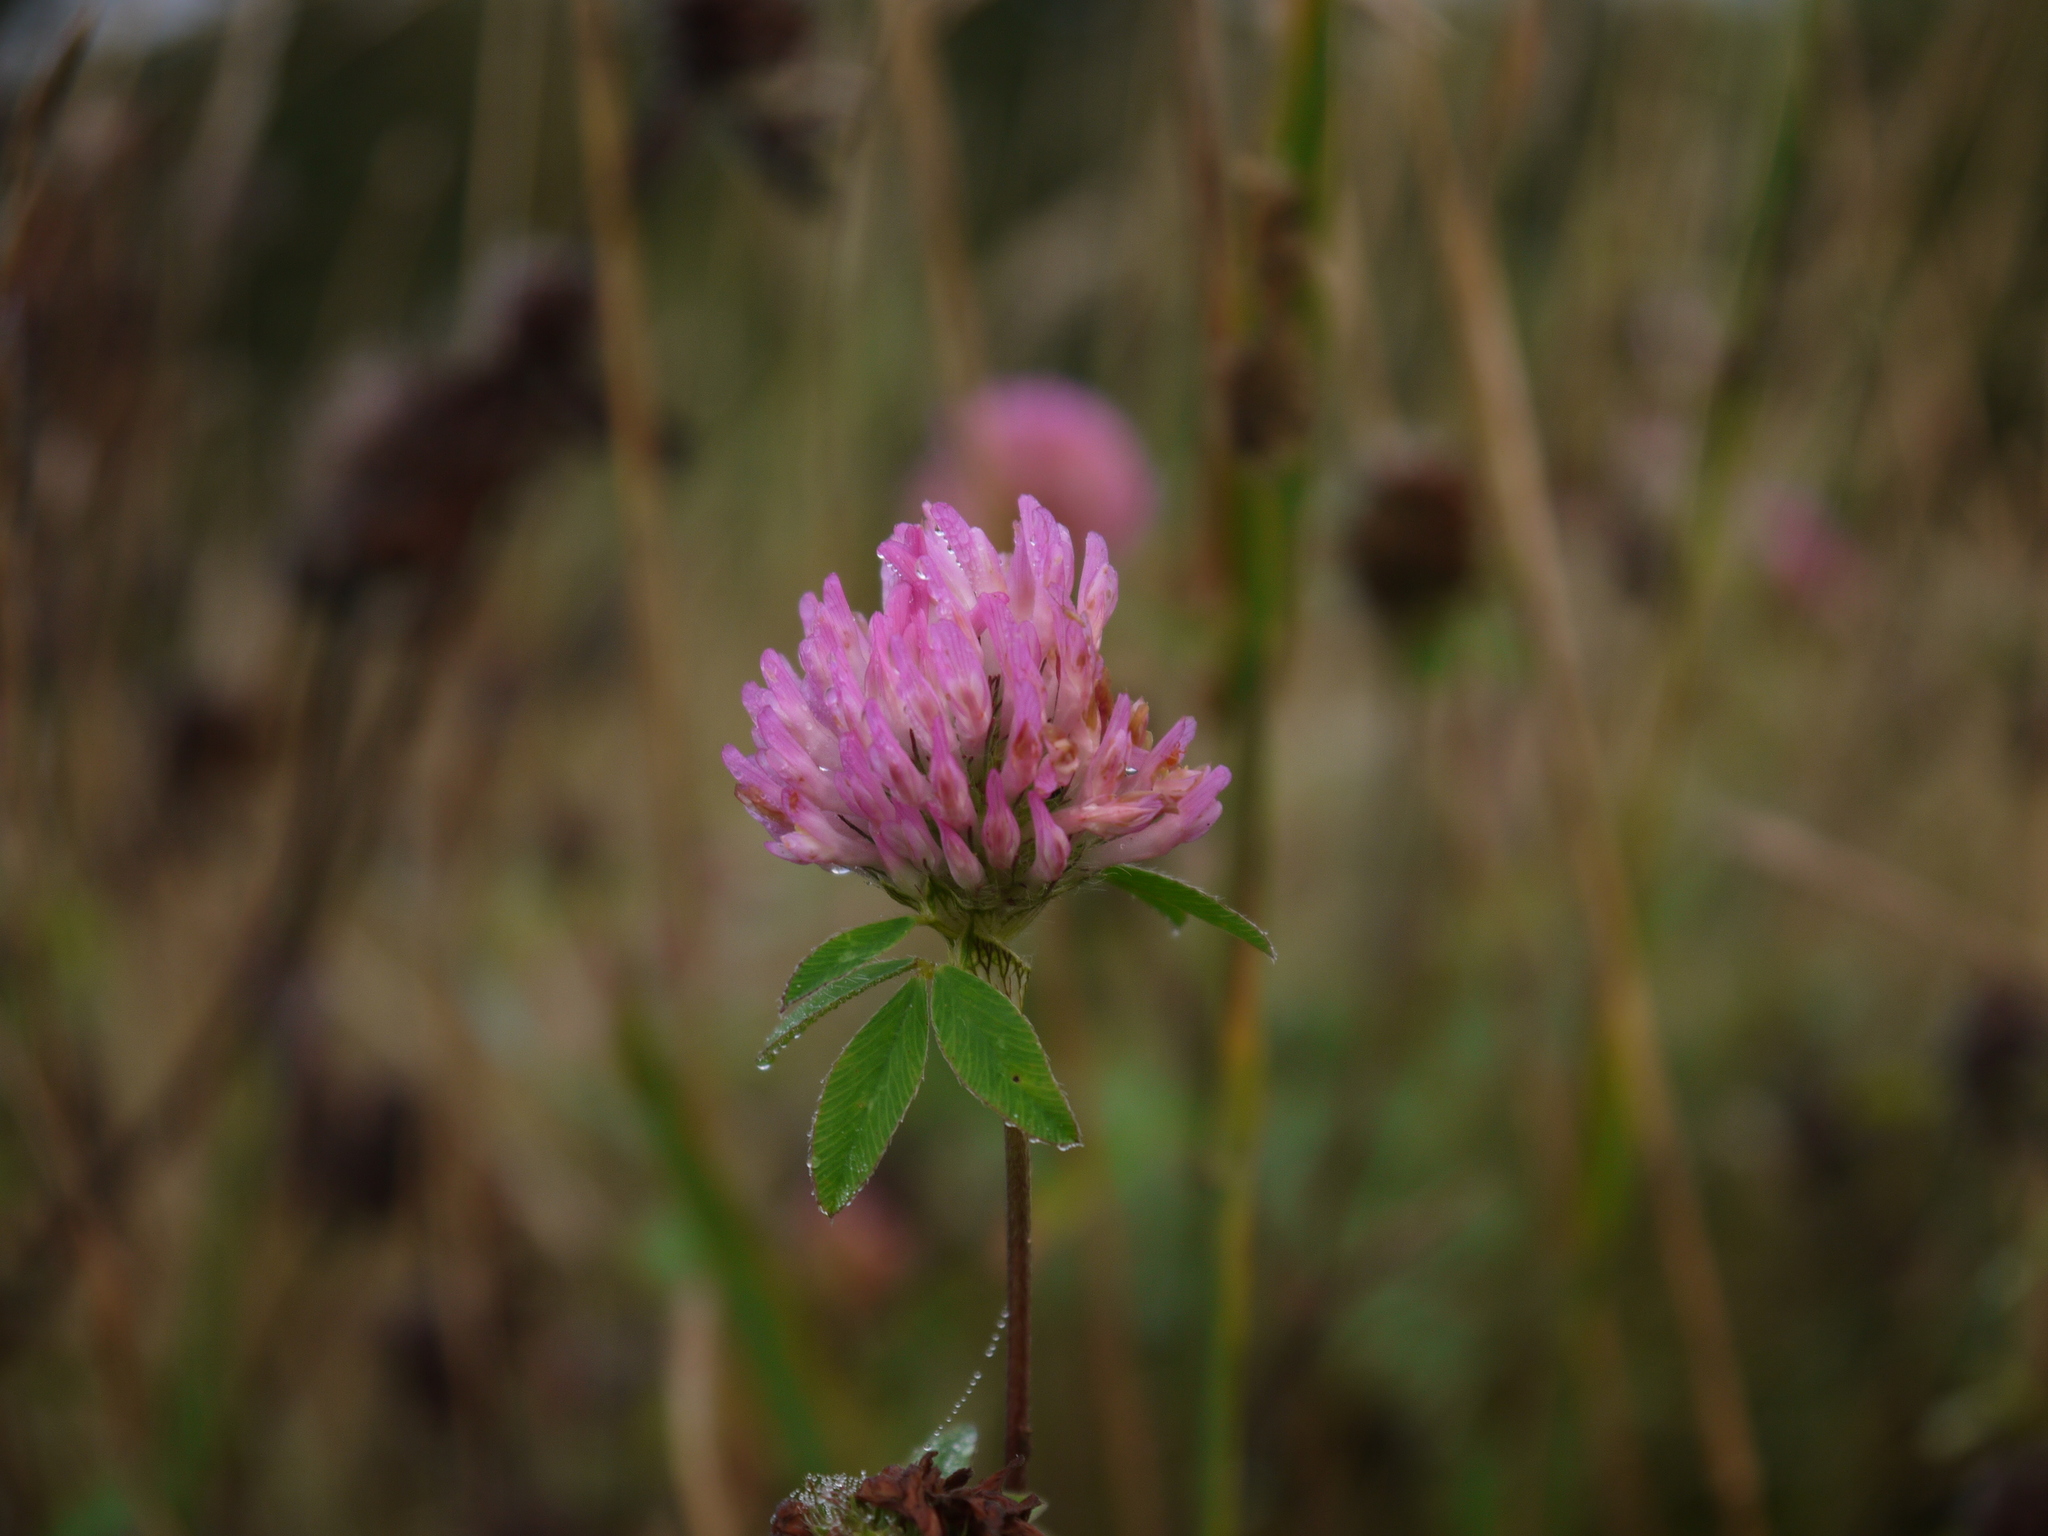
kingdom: Plantae
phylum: Tracheophyta
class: Magnoliopsida
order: Fabales
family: Fabaceae
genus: Trifolium
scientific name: Trifolium pratense
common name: Red clover
